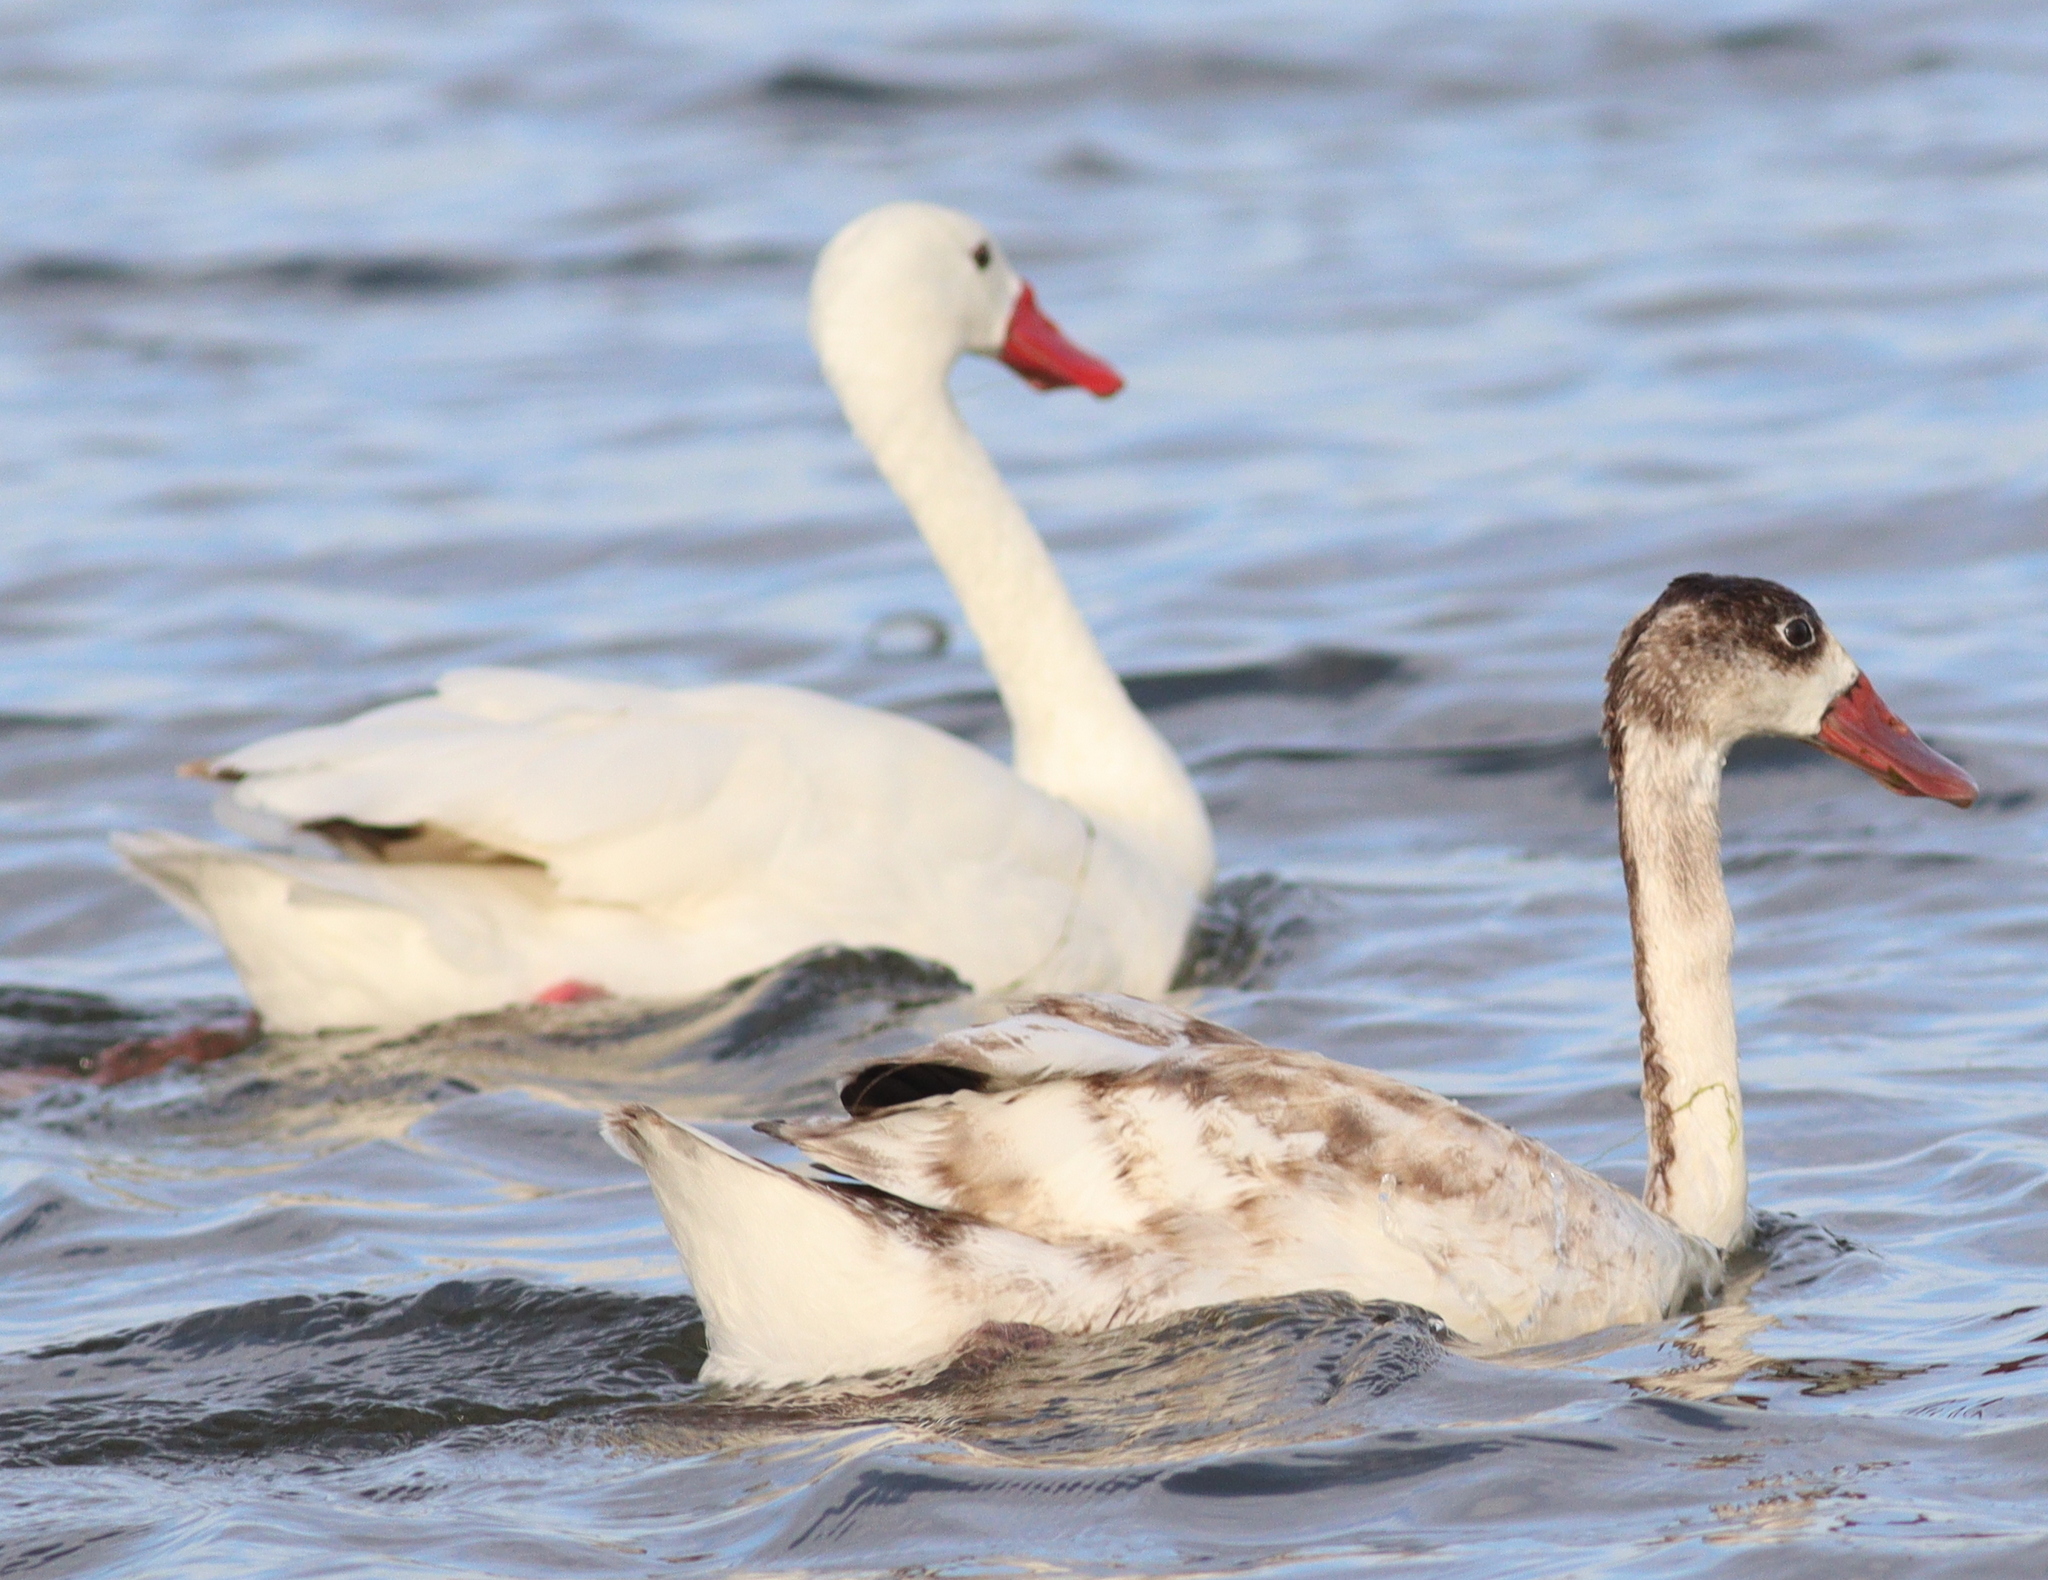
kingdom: Animalia
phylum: Chordata
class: Aves
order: Anseriformes
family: Anatidae
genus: Coscoroba
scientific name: Coscoroba coscoroba
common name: Coscoroba swan
